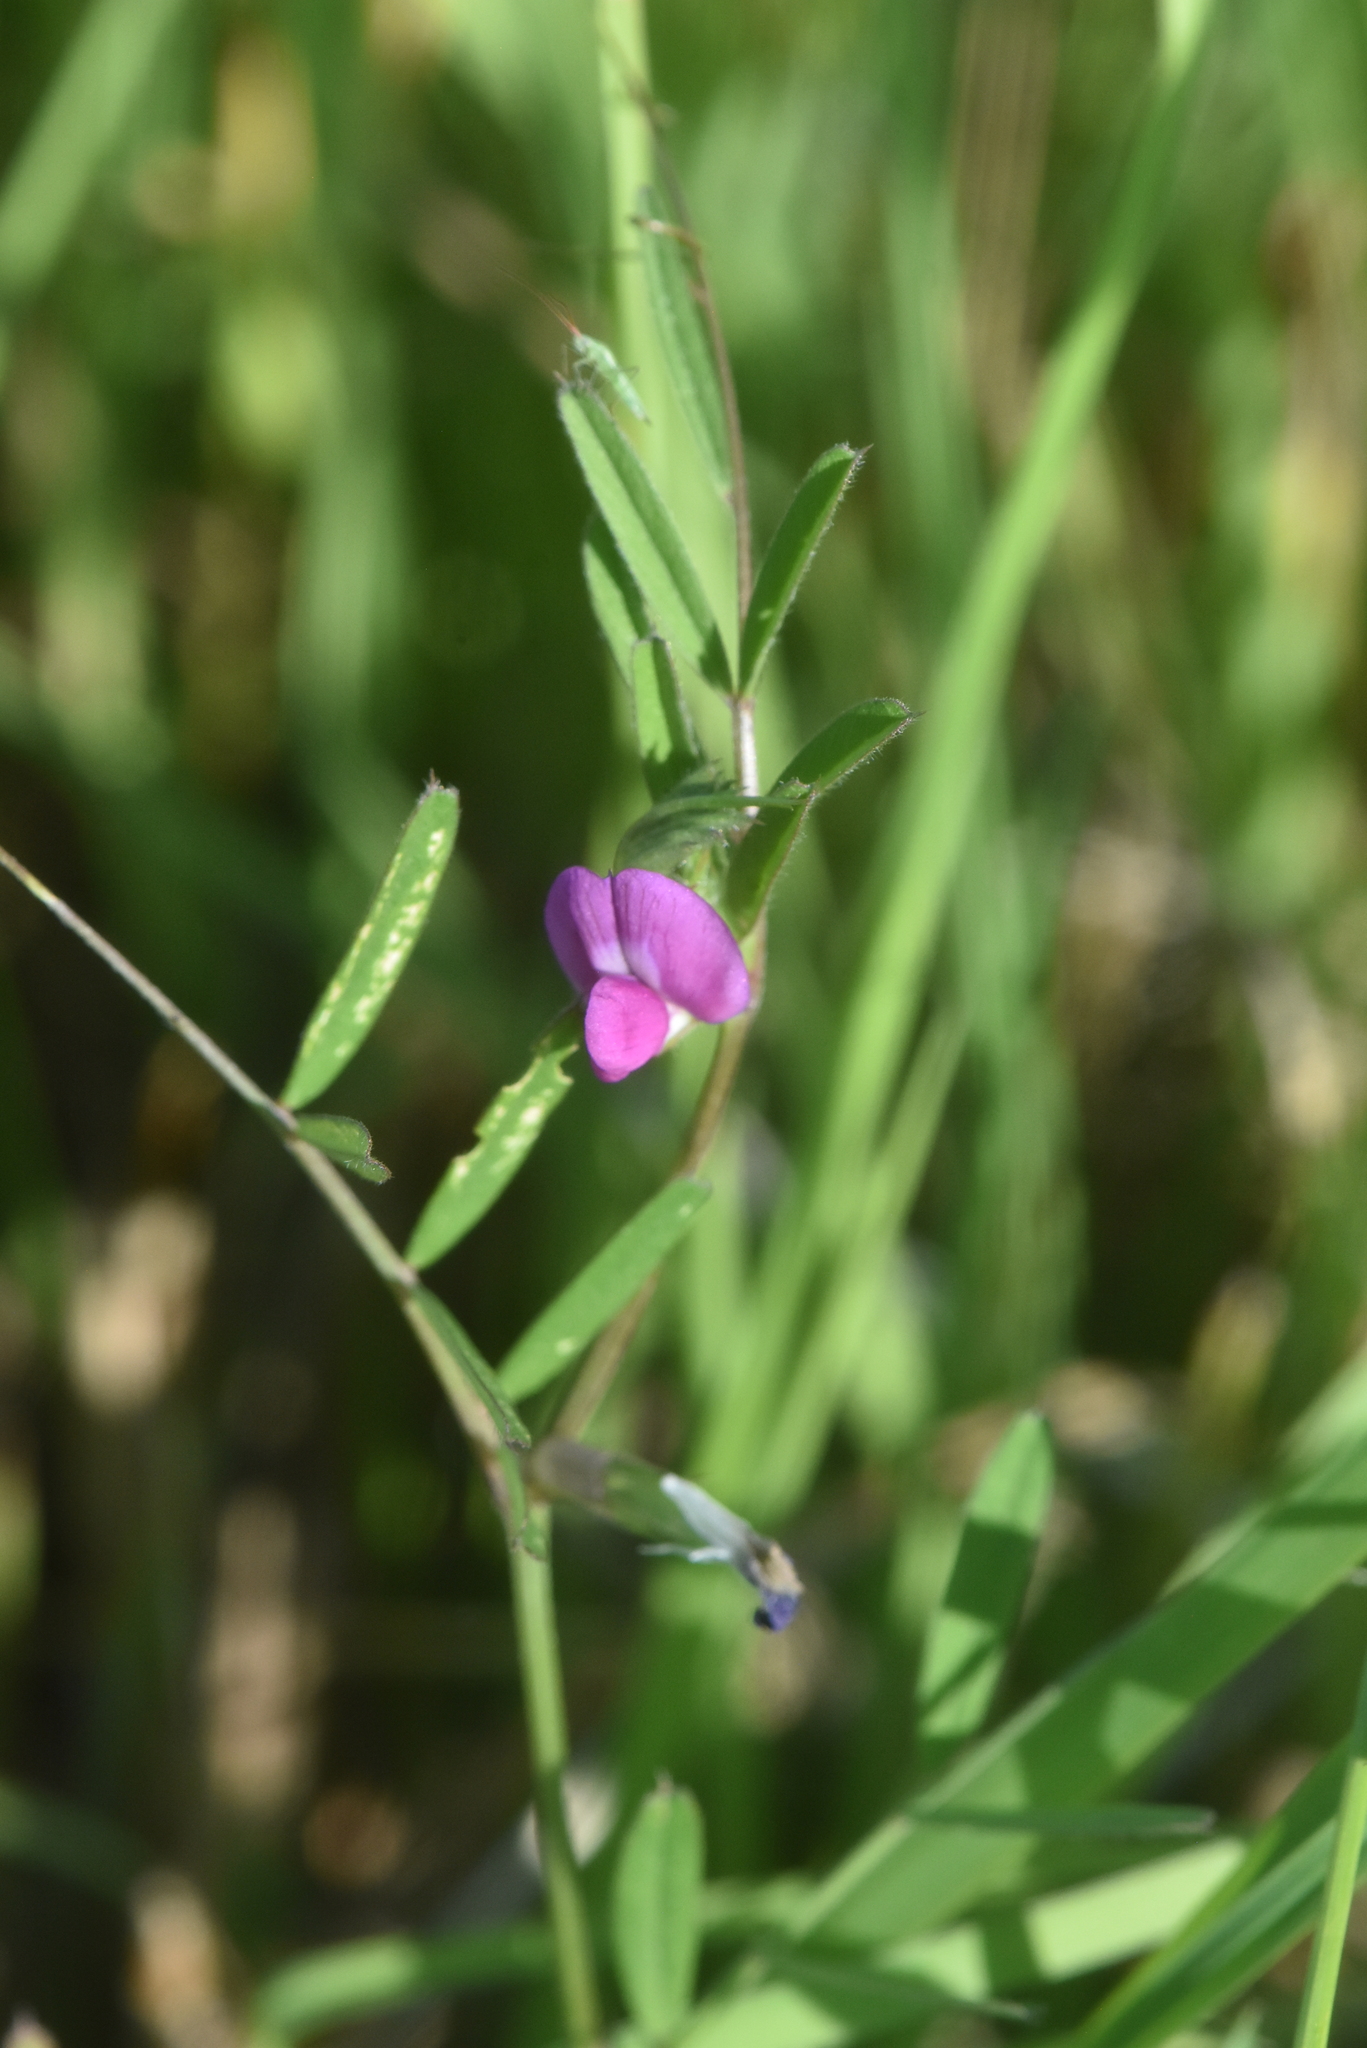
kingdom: Plantae
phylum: Tracheophyta
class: Magnoliopsida
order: Fabales
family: Fabaceae
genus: Vicia
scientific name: Vicia sativa
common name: Garden vetch
